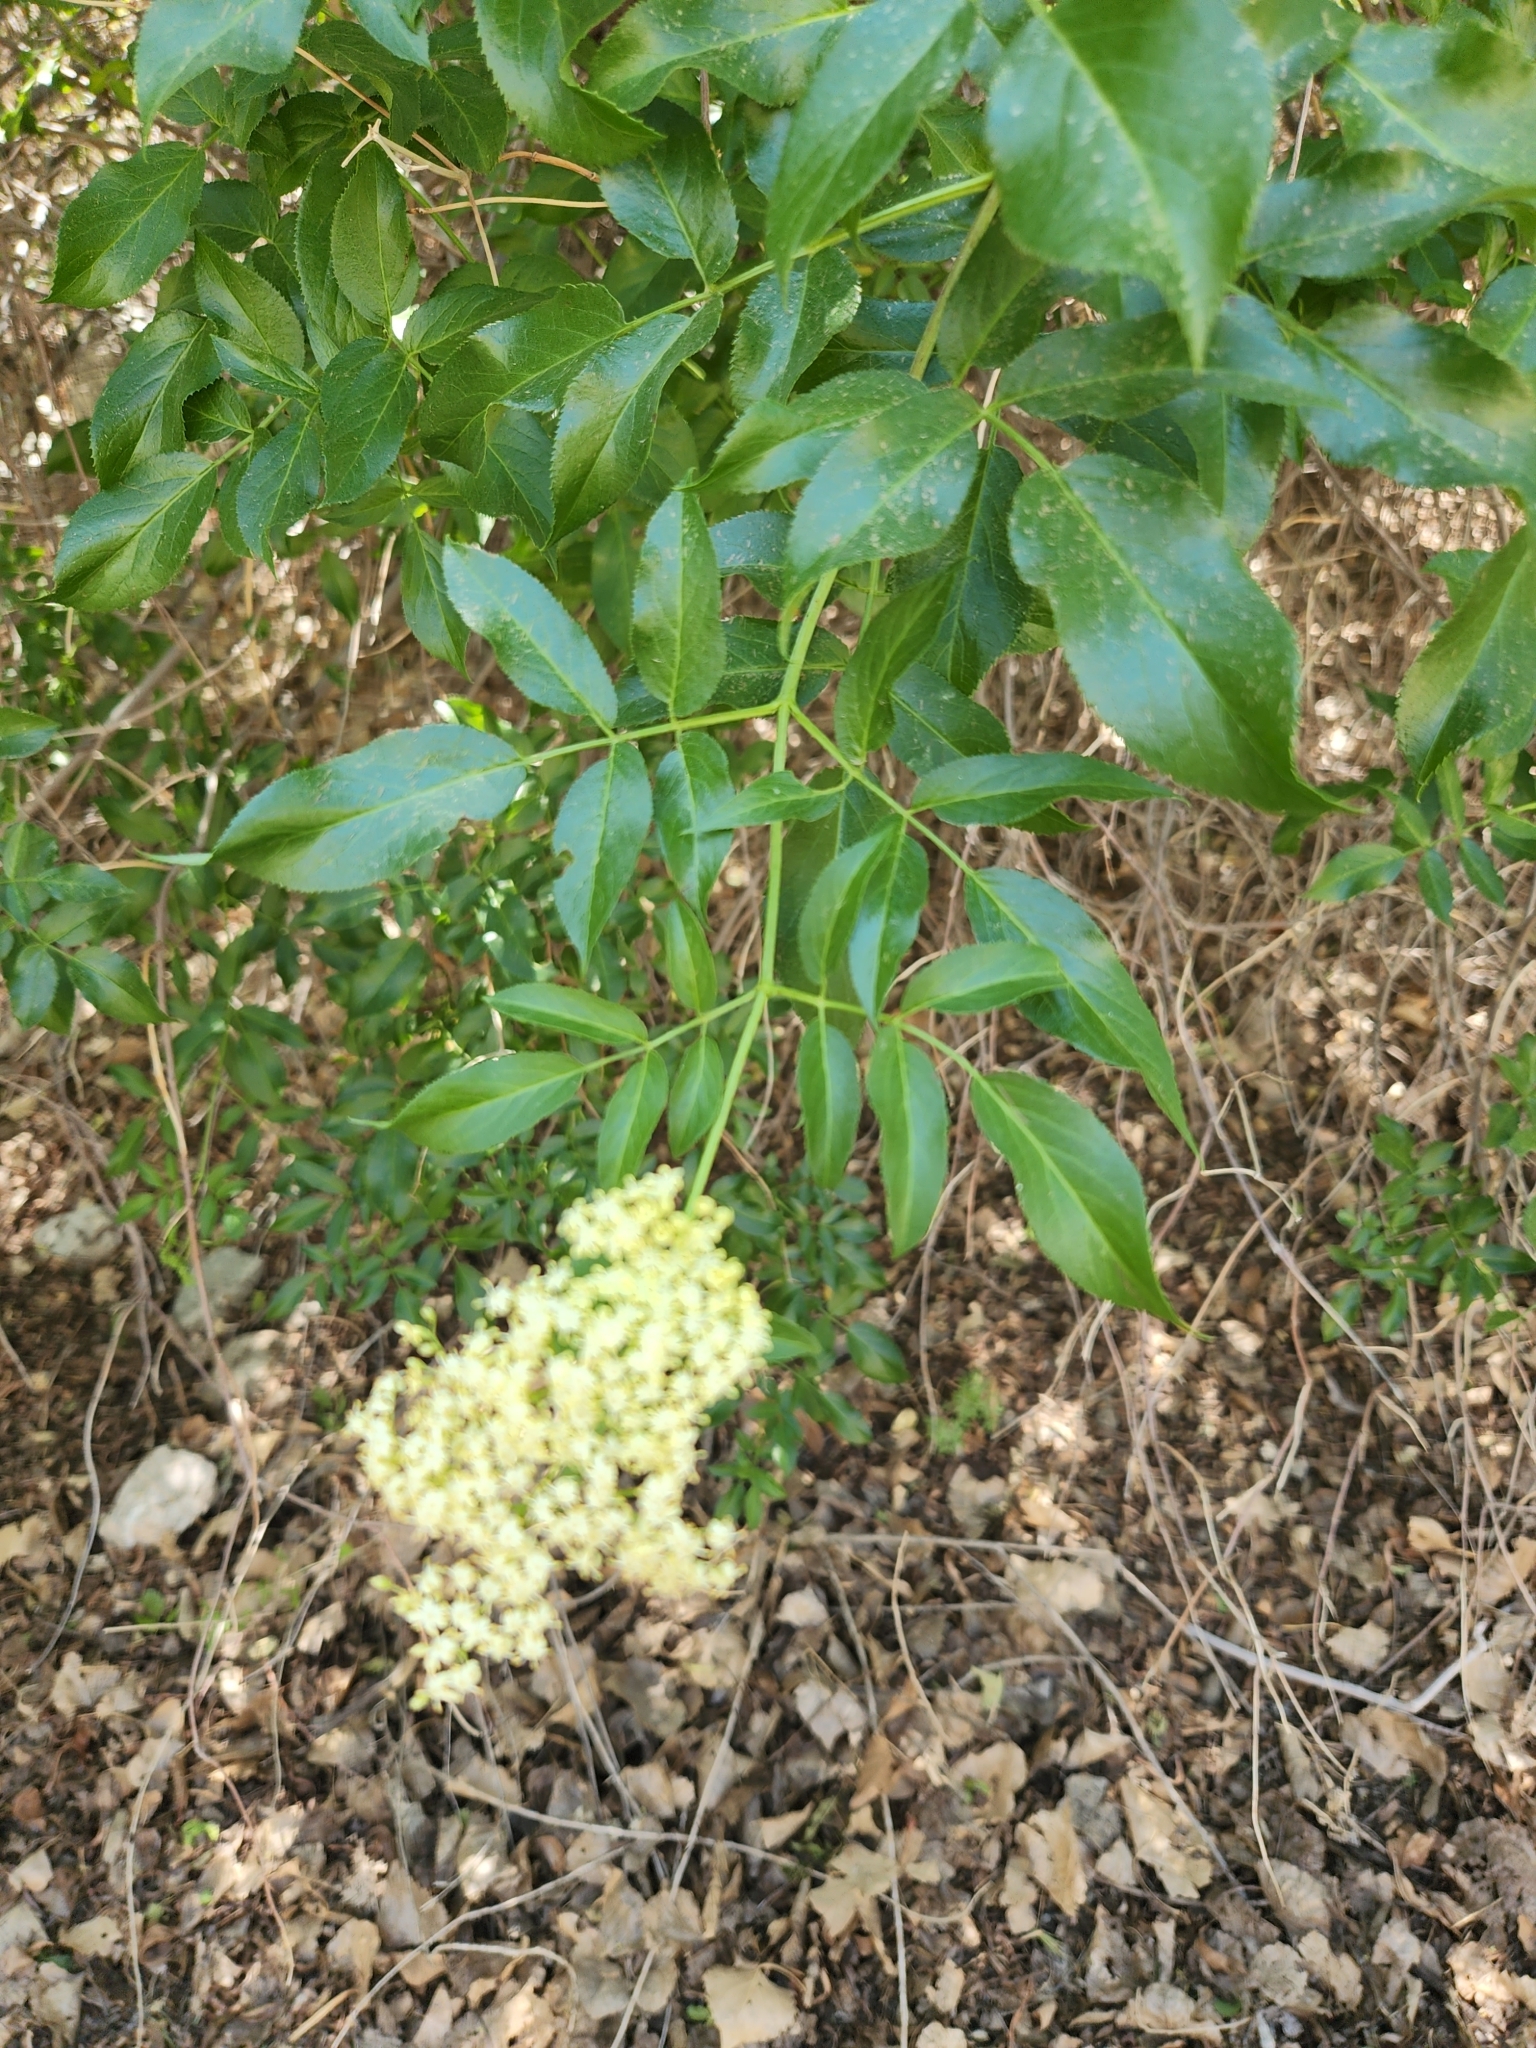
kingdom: Plantae
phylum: Tracheophyta
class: Magnoliopsida
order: Dipsacales
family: Viburnaceae
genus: Sambucus
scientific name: Sambucus cerulea
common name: Blue elder
